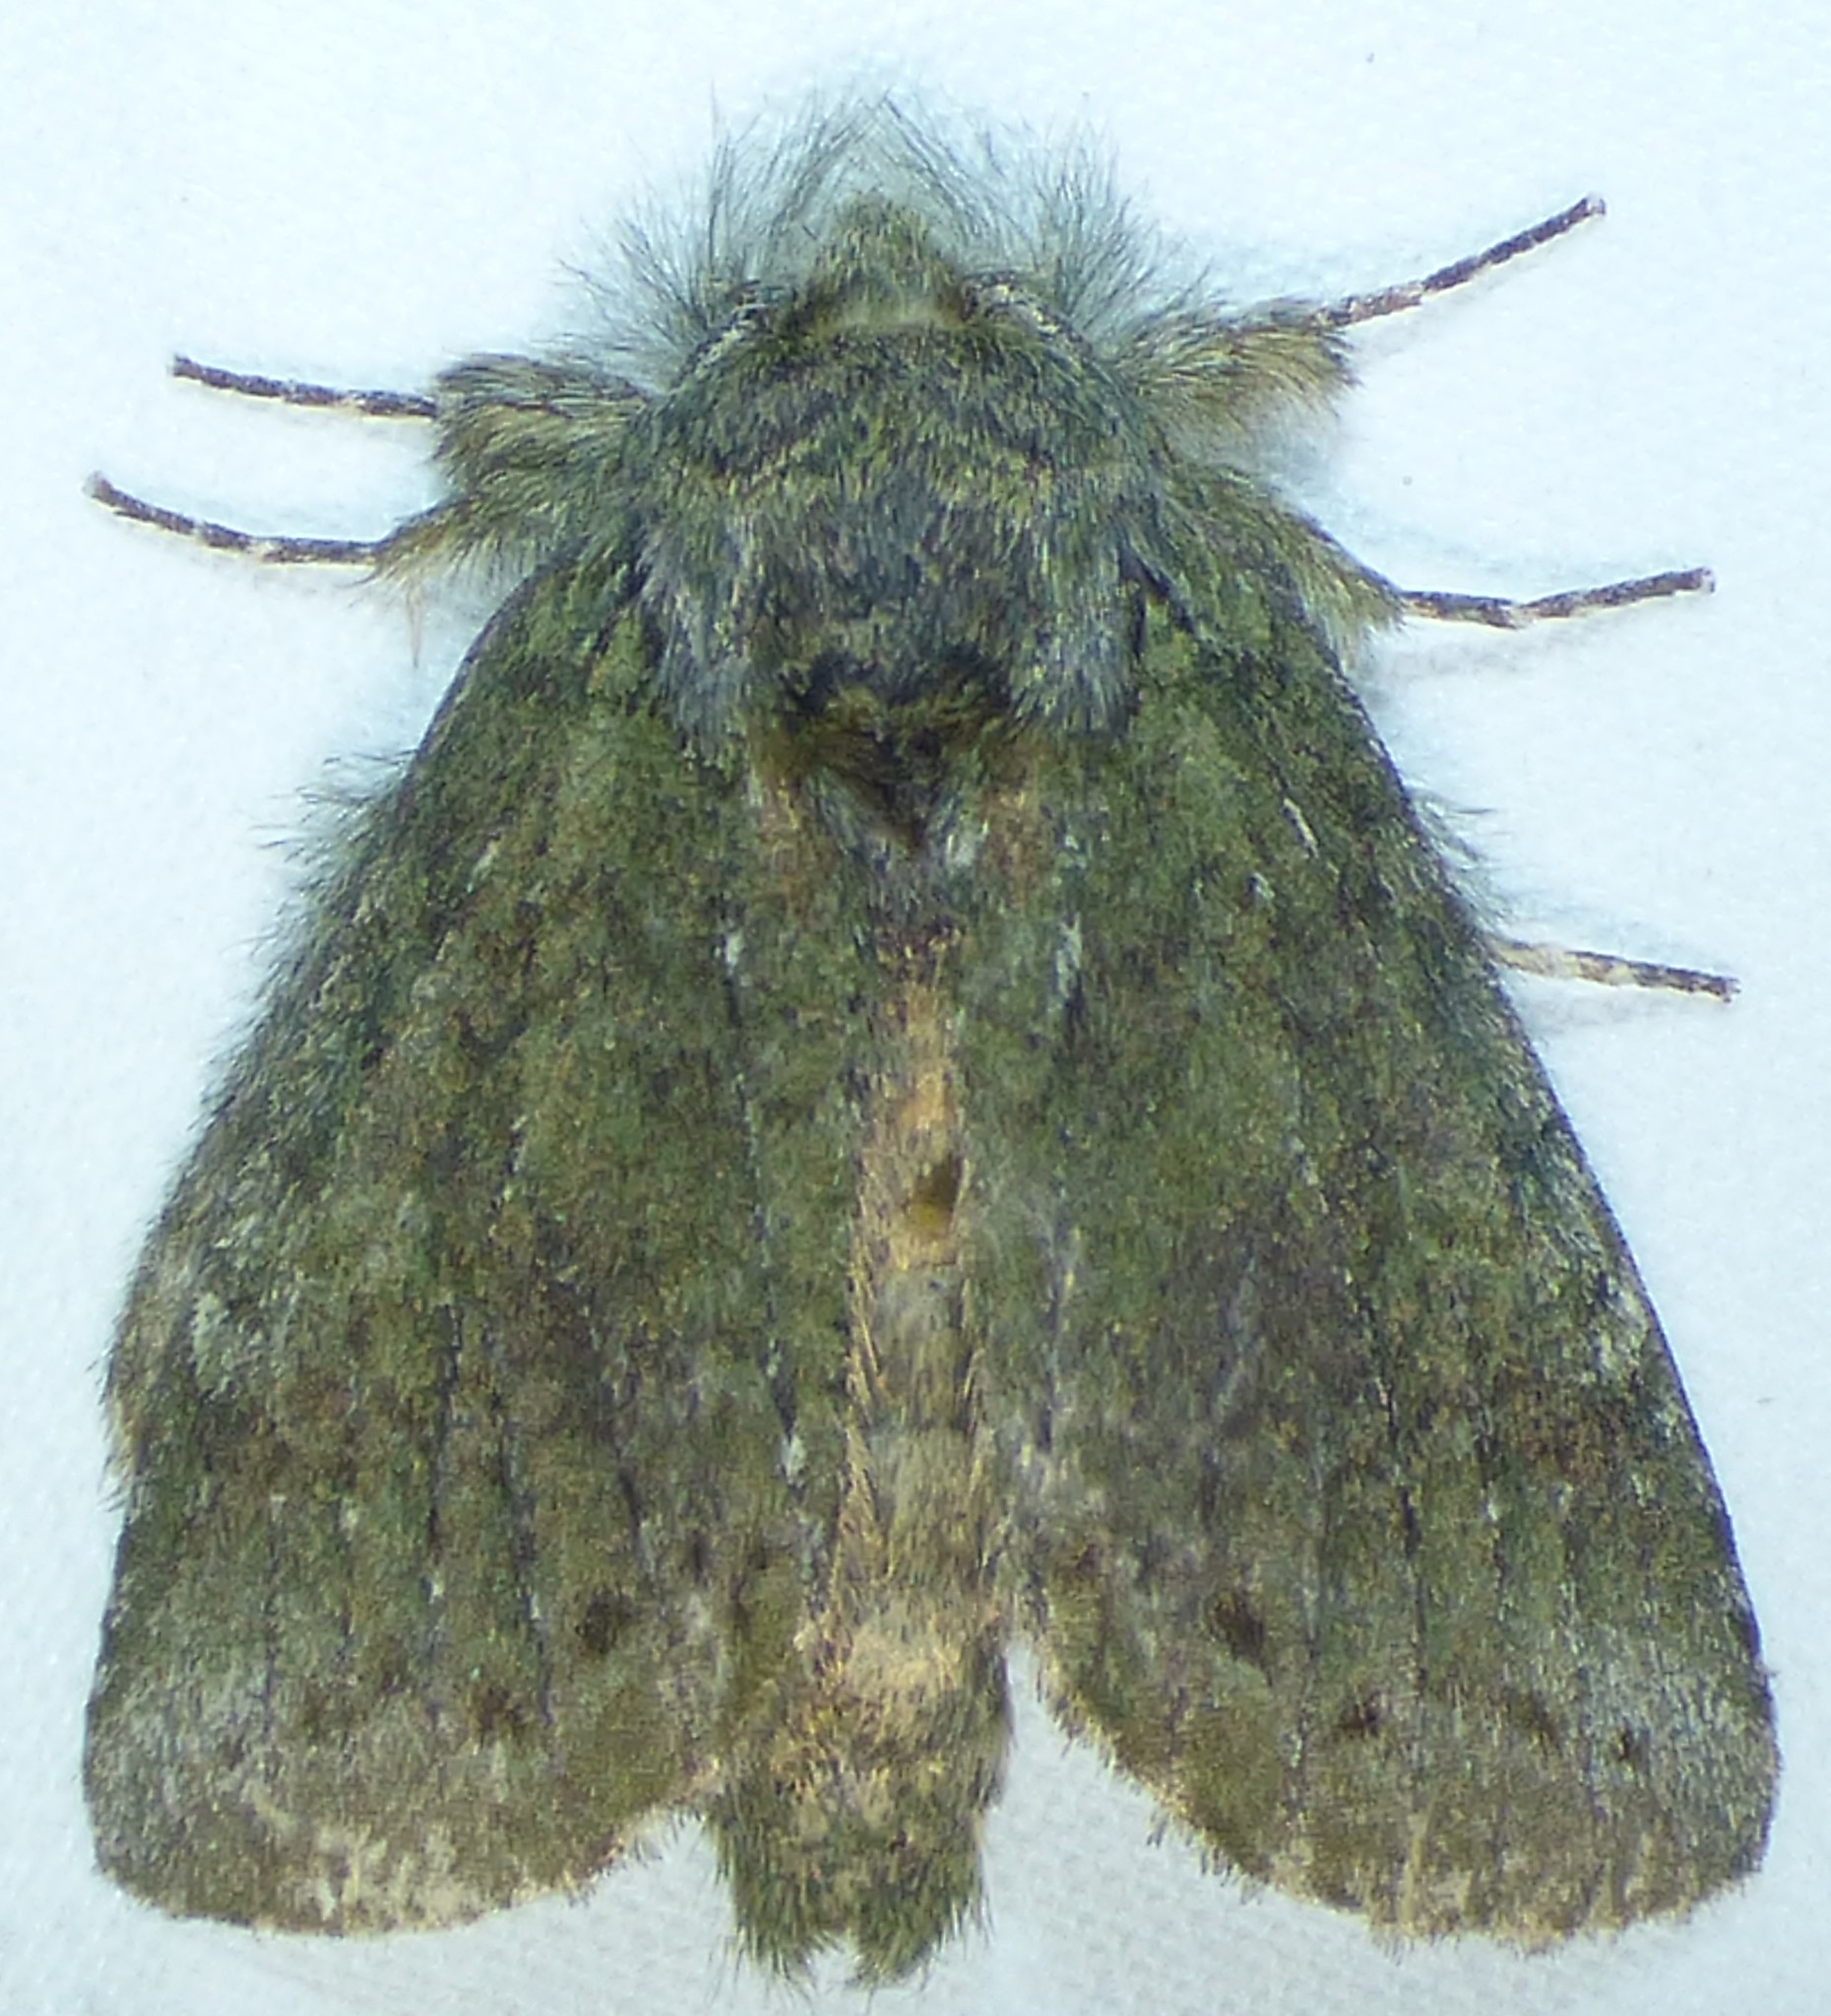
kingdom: Animalia
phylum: Arthropoda
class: Insecta
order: Lepidoptera
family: Notodontidae
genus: Disphragis
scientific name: Disphragis Cecrita guttivitta
